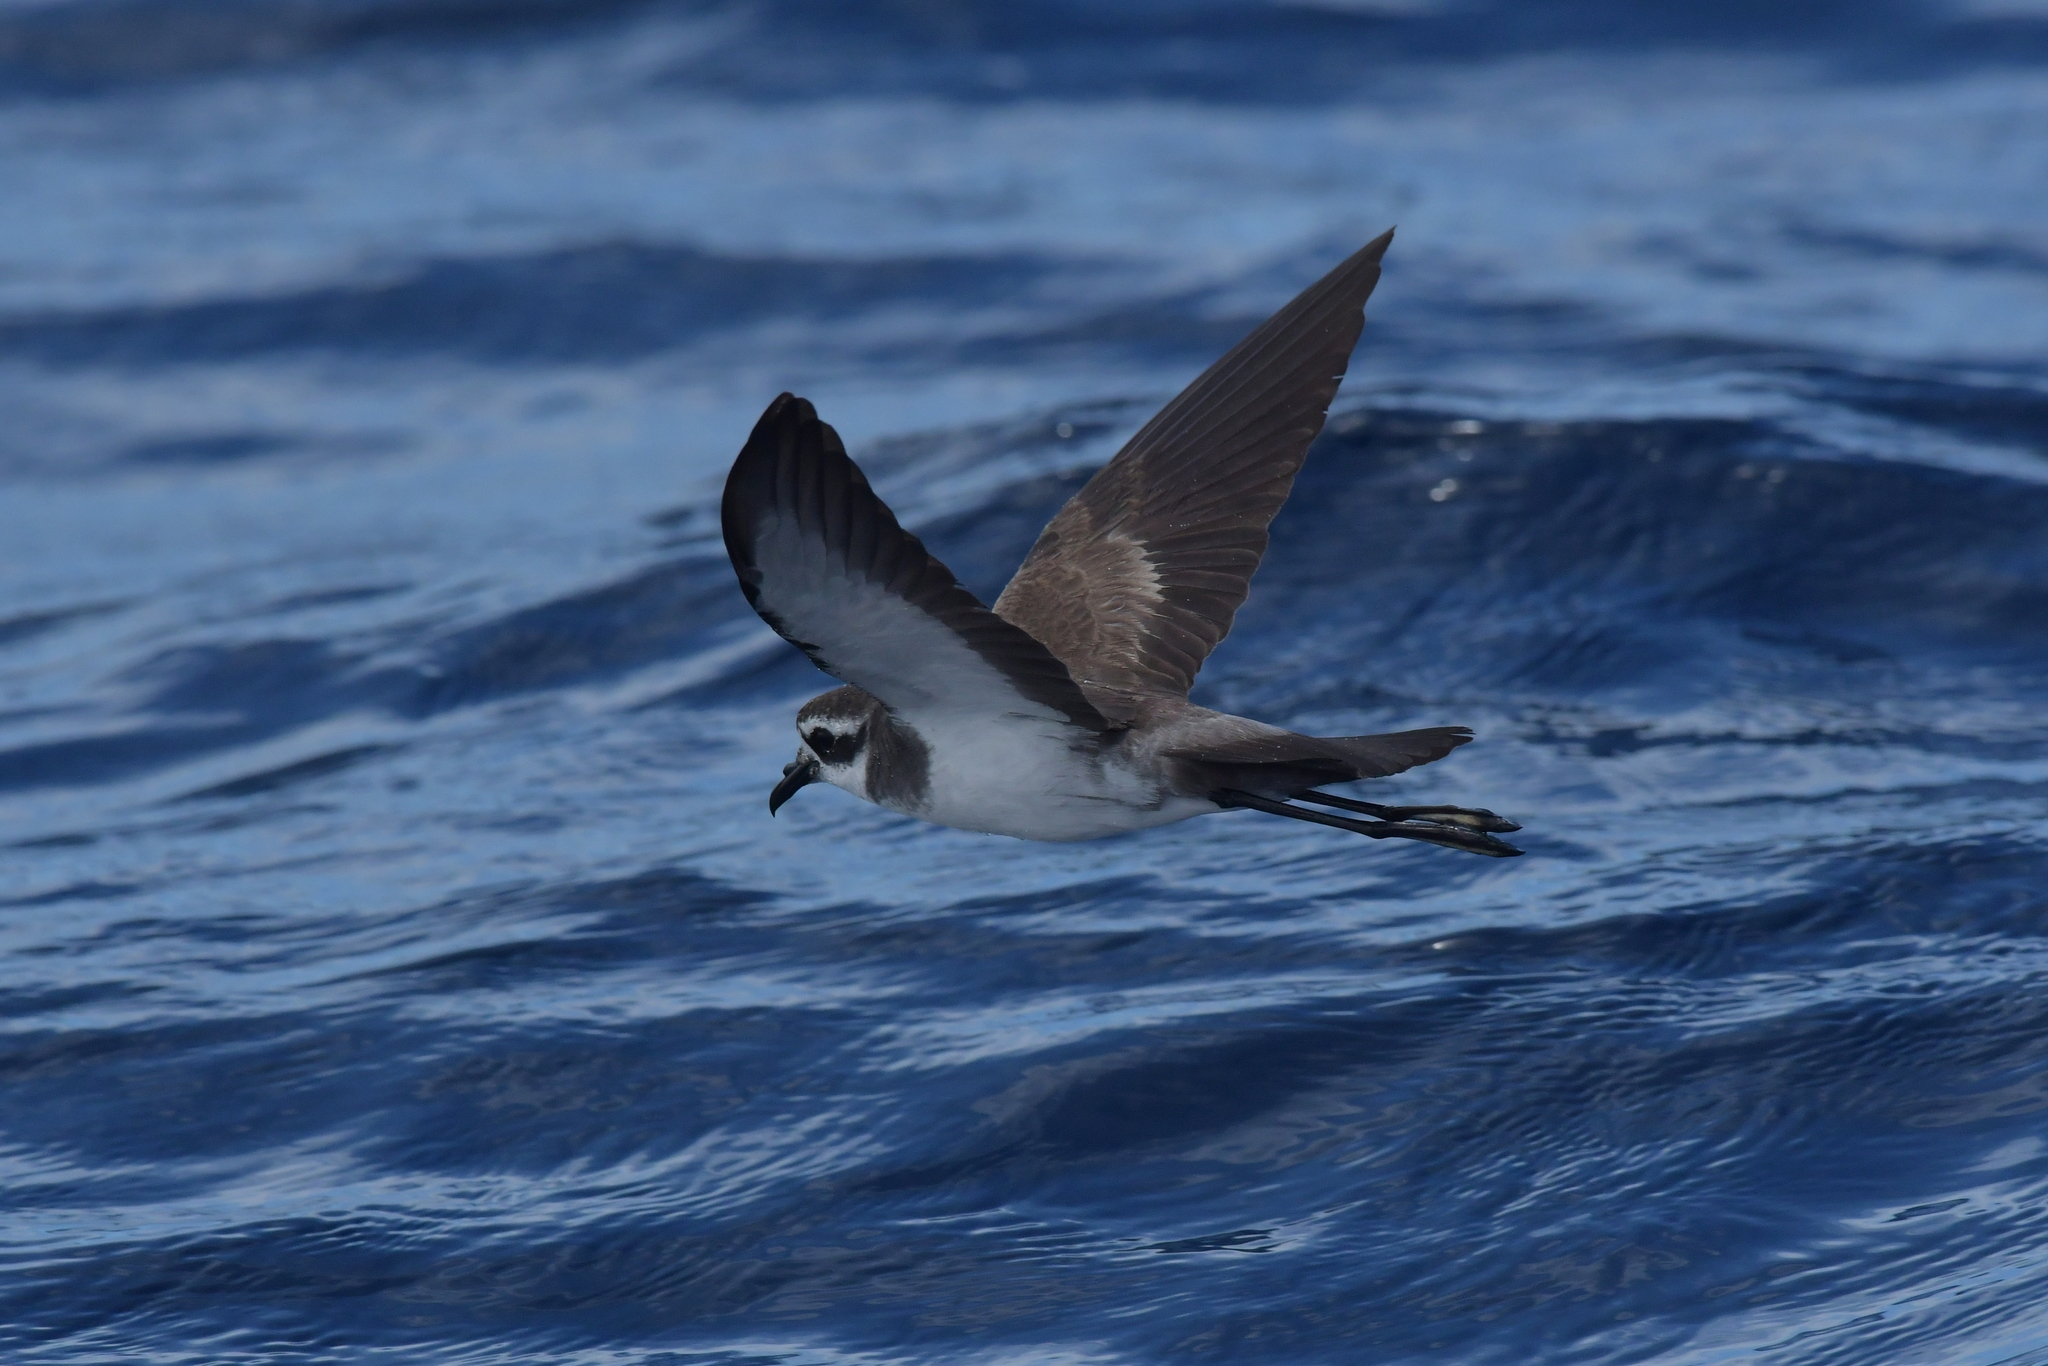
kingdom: Animalia
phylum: Chordata
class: Aves
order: Procellariiformes
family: Hydrobatidae
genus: Pelagodroma
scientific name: Pelagodroma marina
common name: White-faced storm-petrel
